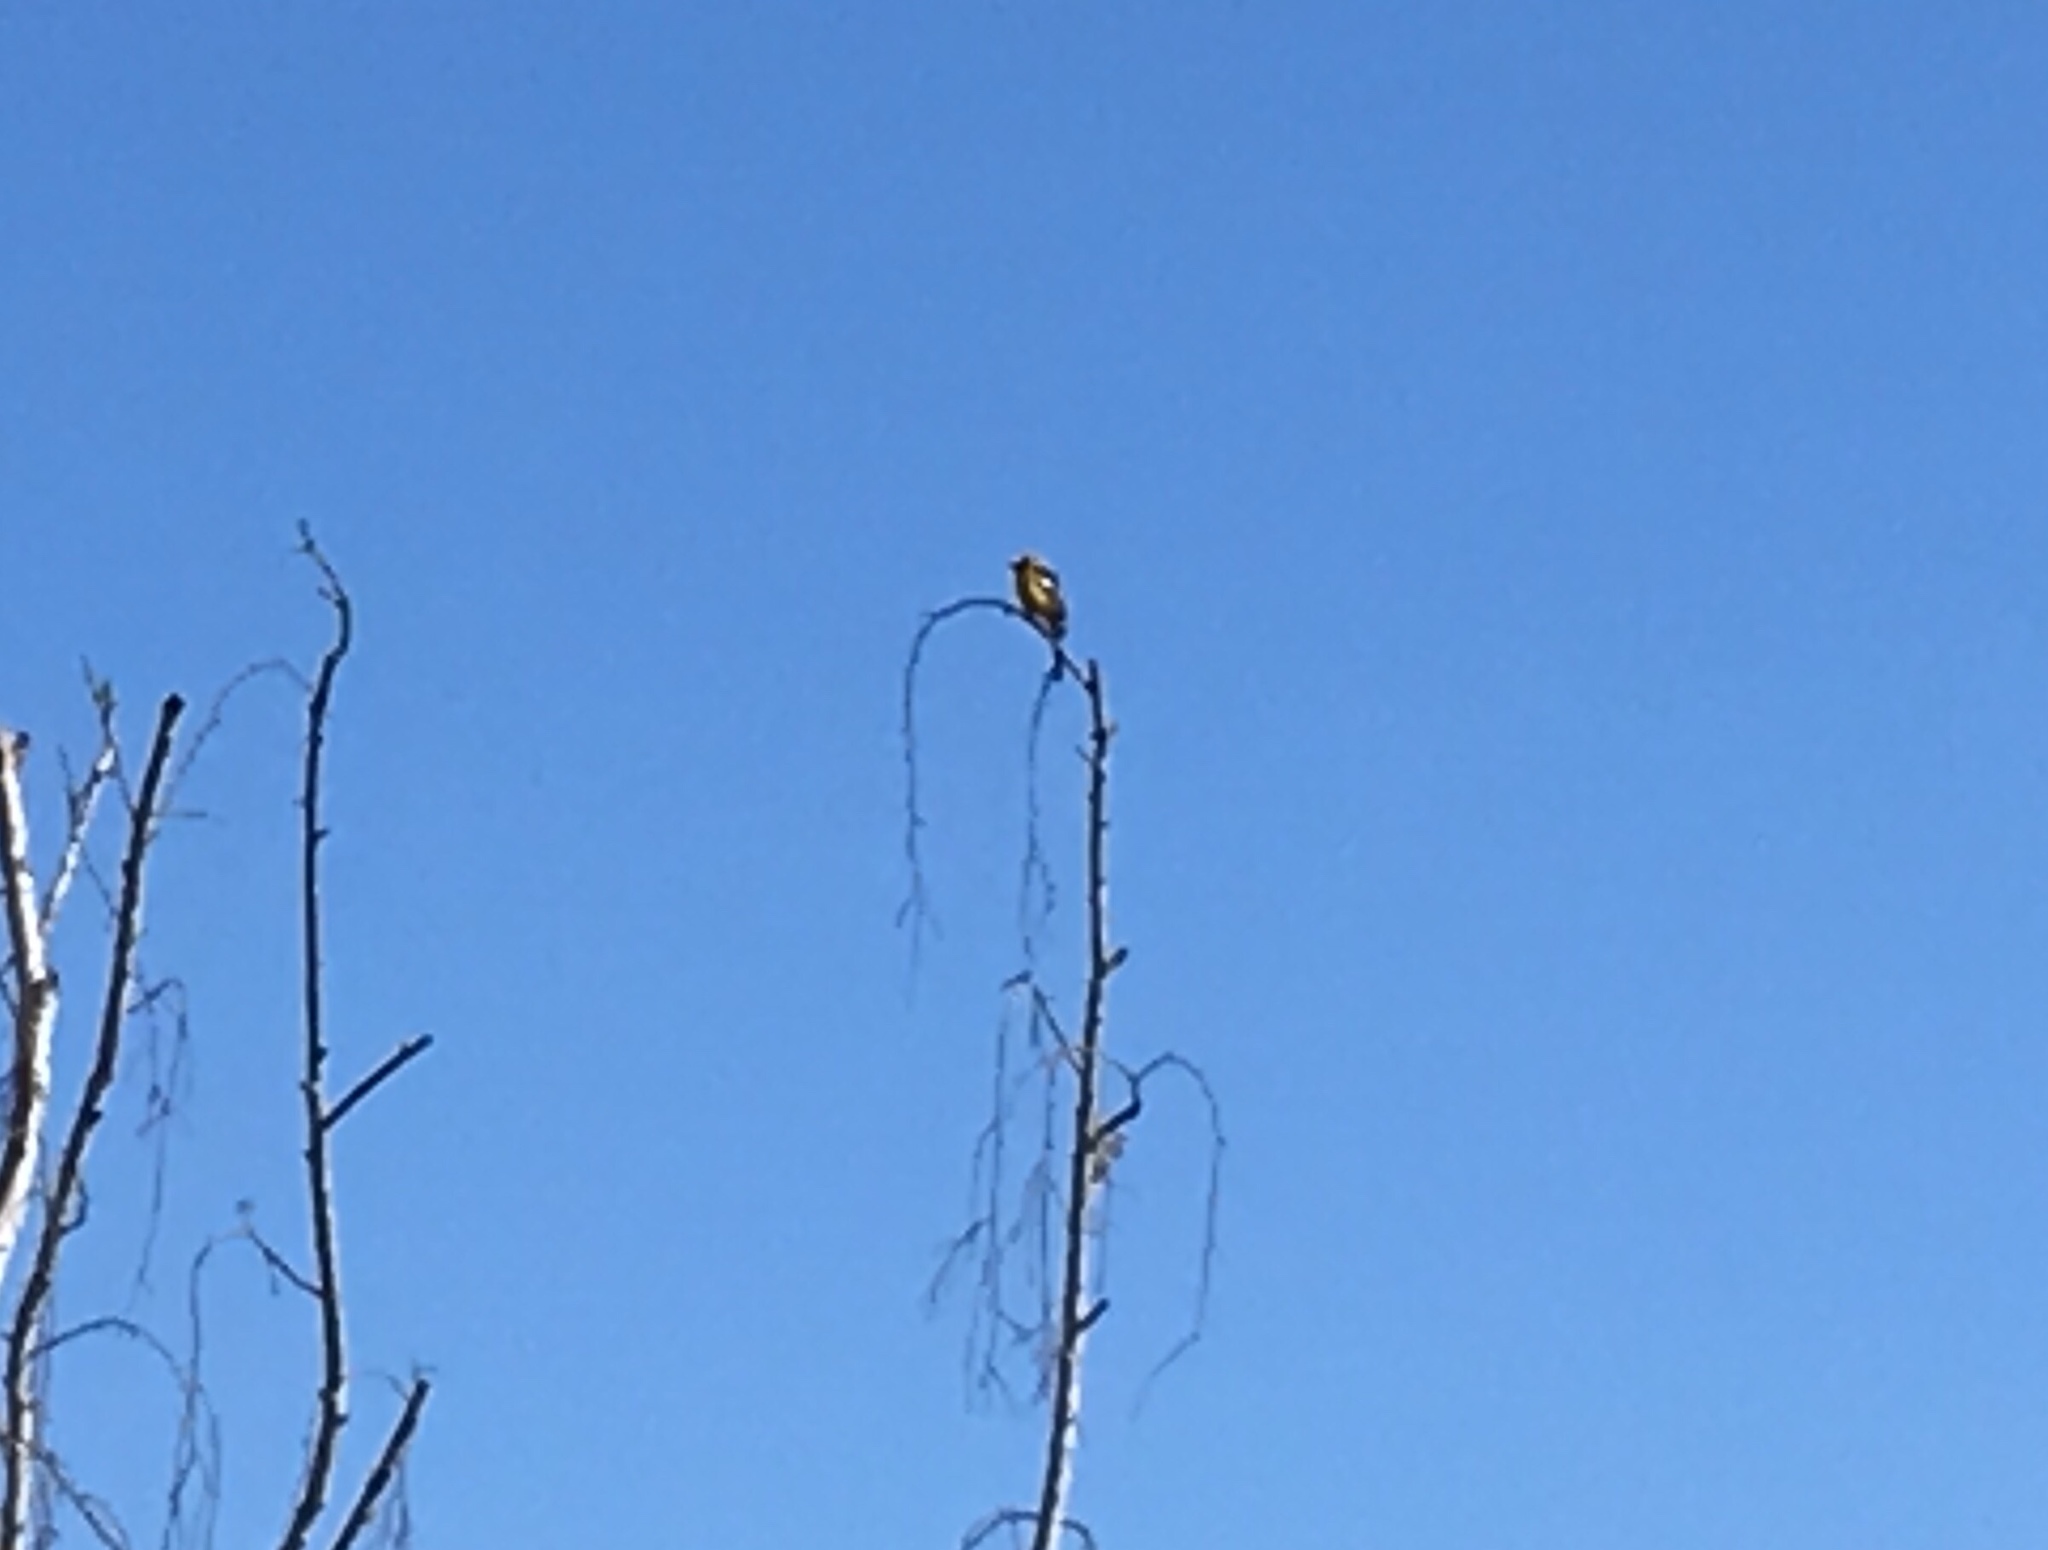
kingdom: Animalia
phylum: Chordata
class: Aves
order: Passeriformes
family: Icteridae
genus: Icterus
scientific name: Icterus bullockii
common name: Bullock's oriole
